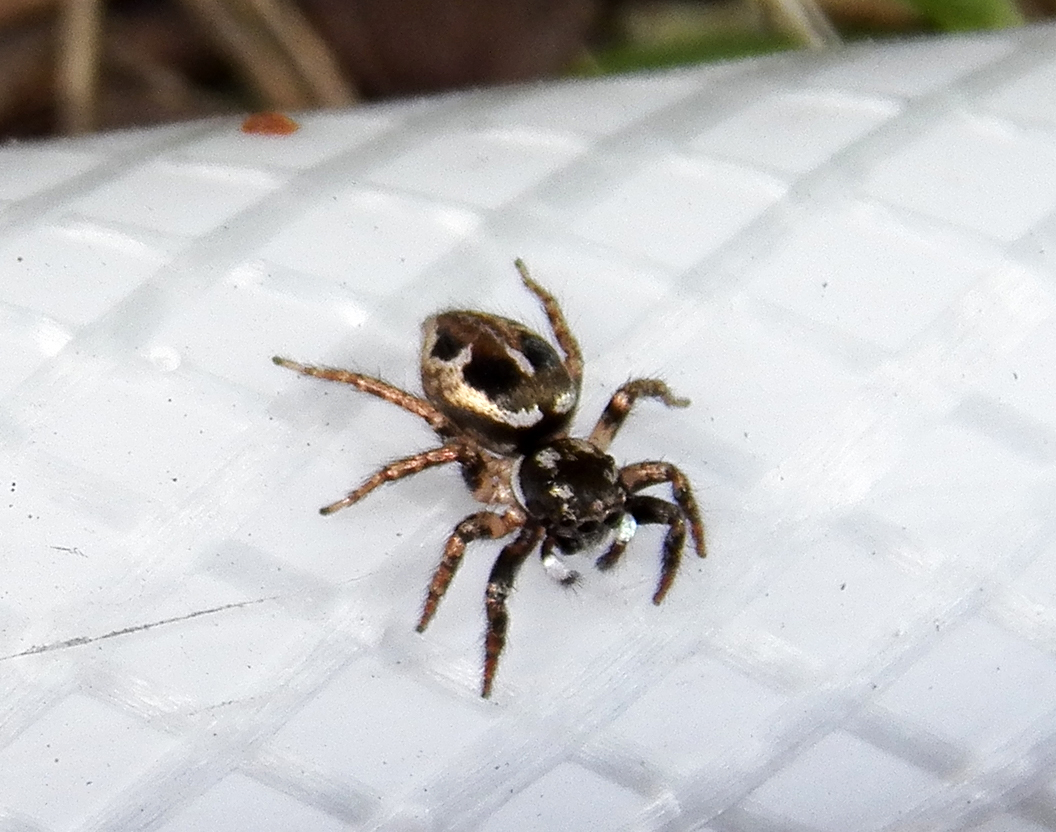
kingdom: Animalia
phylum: Arthropoda
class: Arachnida
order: Araneae
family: Salticidae
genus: Anasaitis
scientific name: Anasaitis canosa
